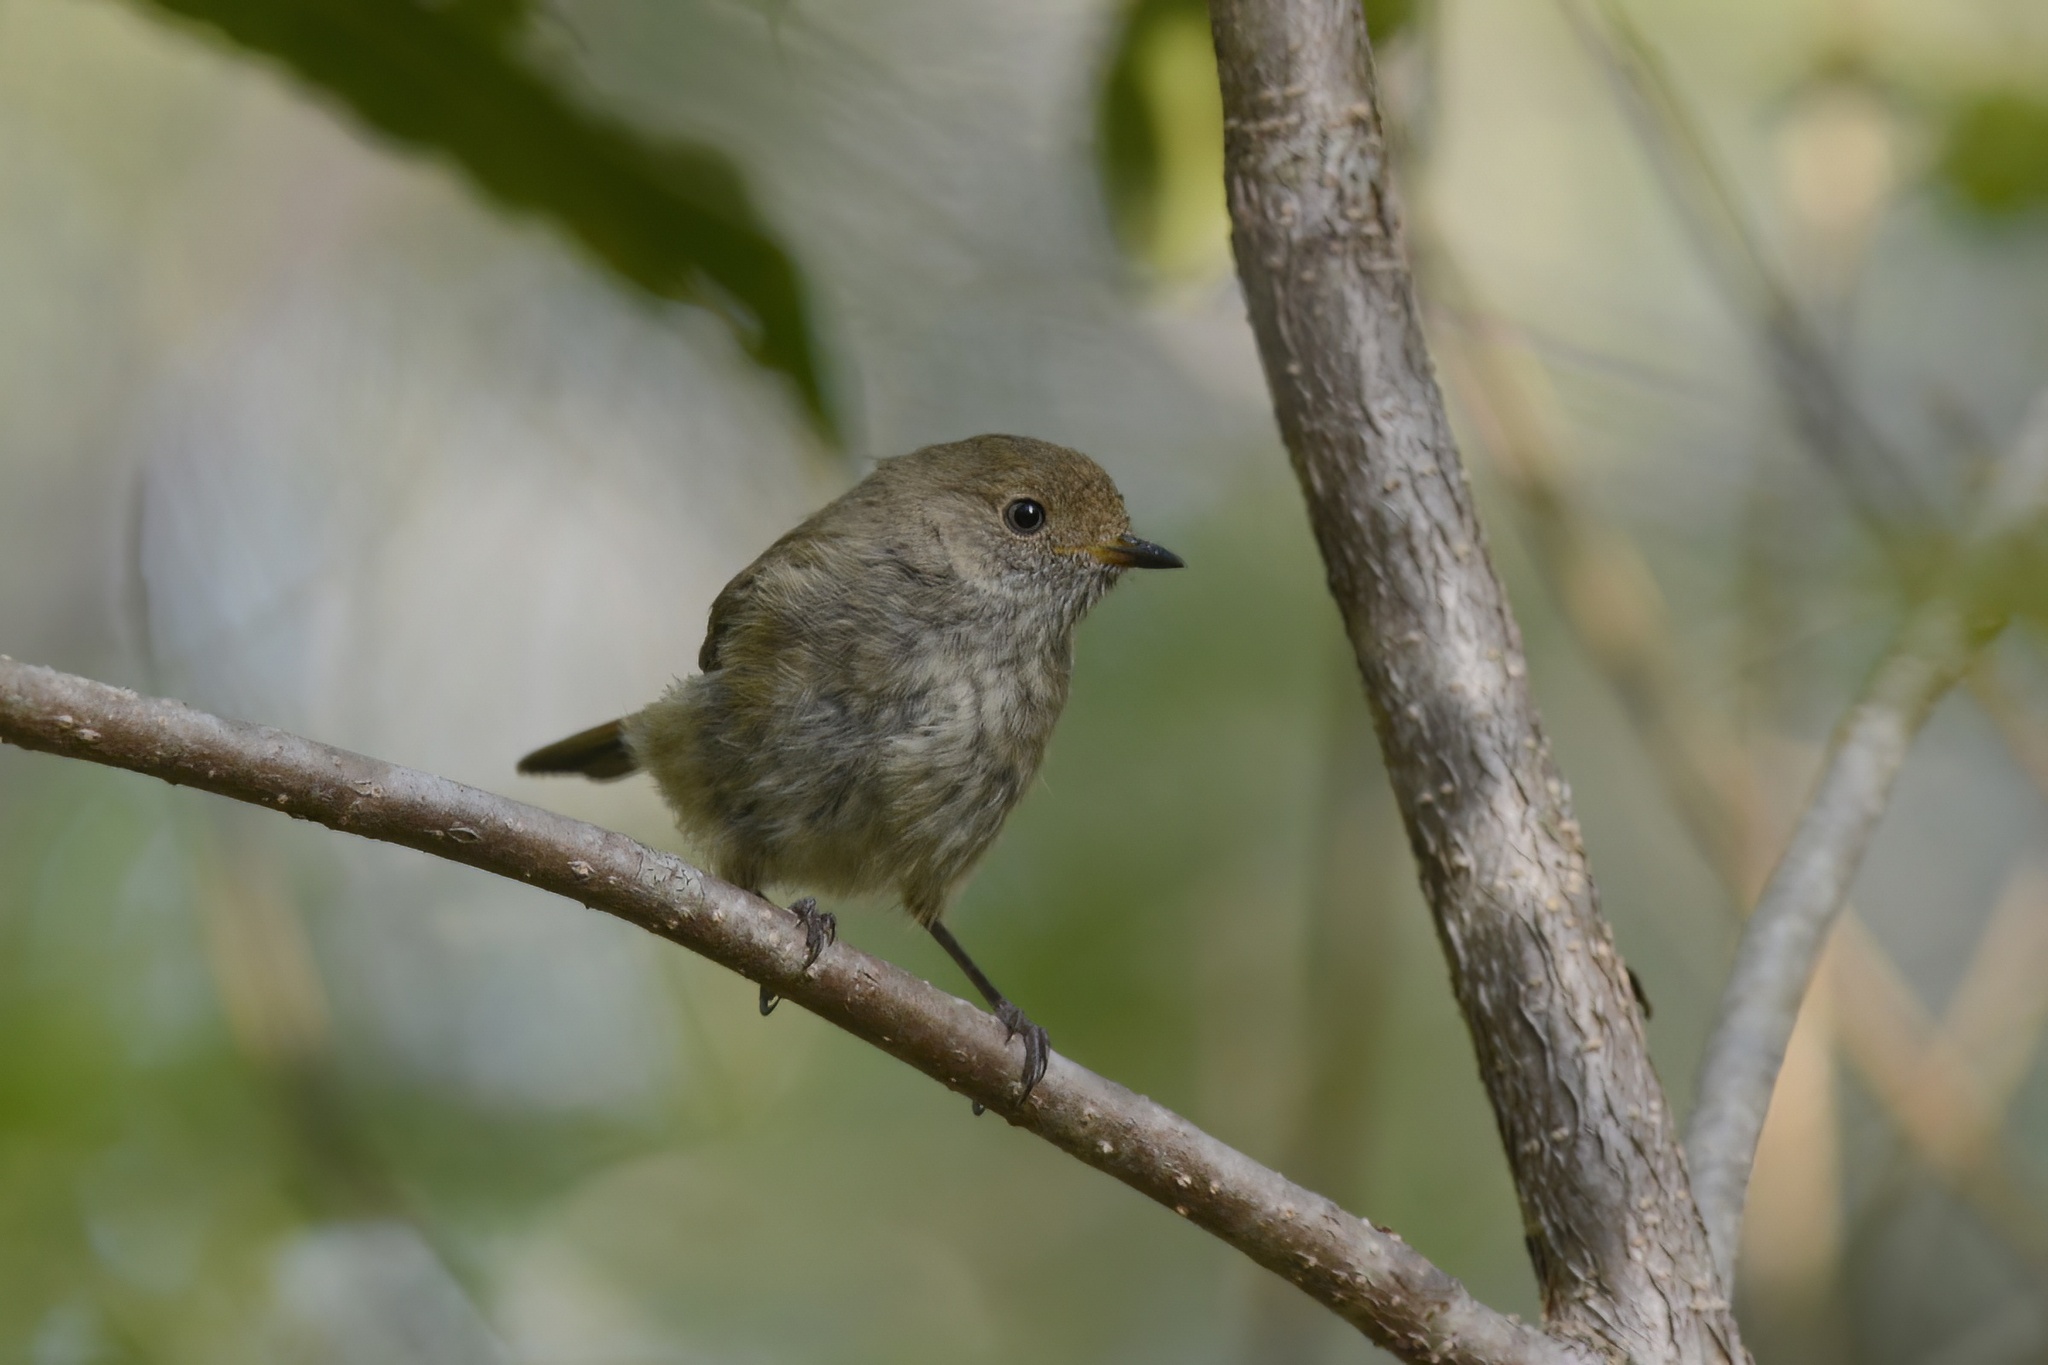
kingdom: Animalia
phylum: Chordata
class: Aves
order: Passeriformes
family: Acanthizidae
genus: Acanthiza
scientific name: Acanthiza pusilla
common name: Brown thornbill
